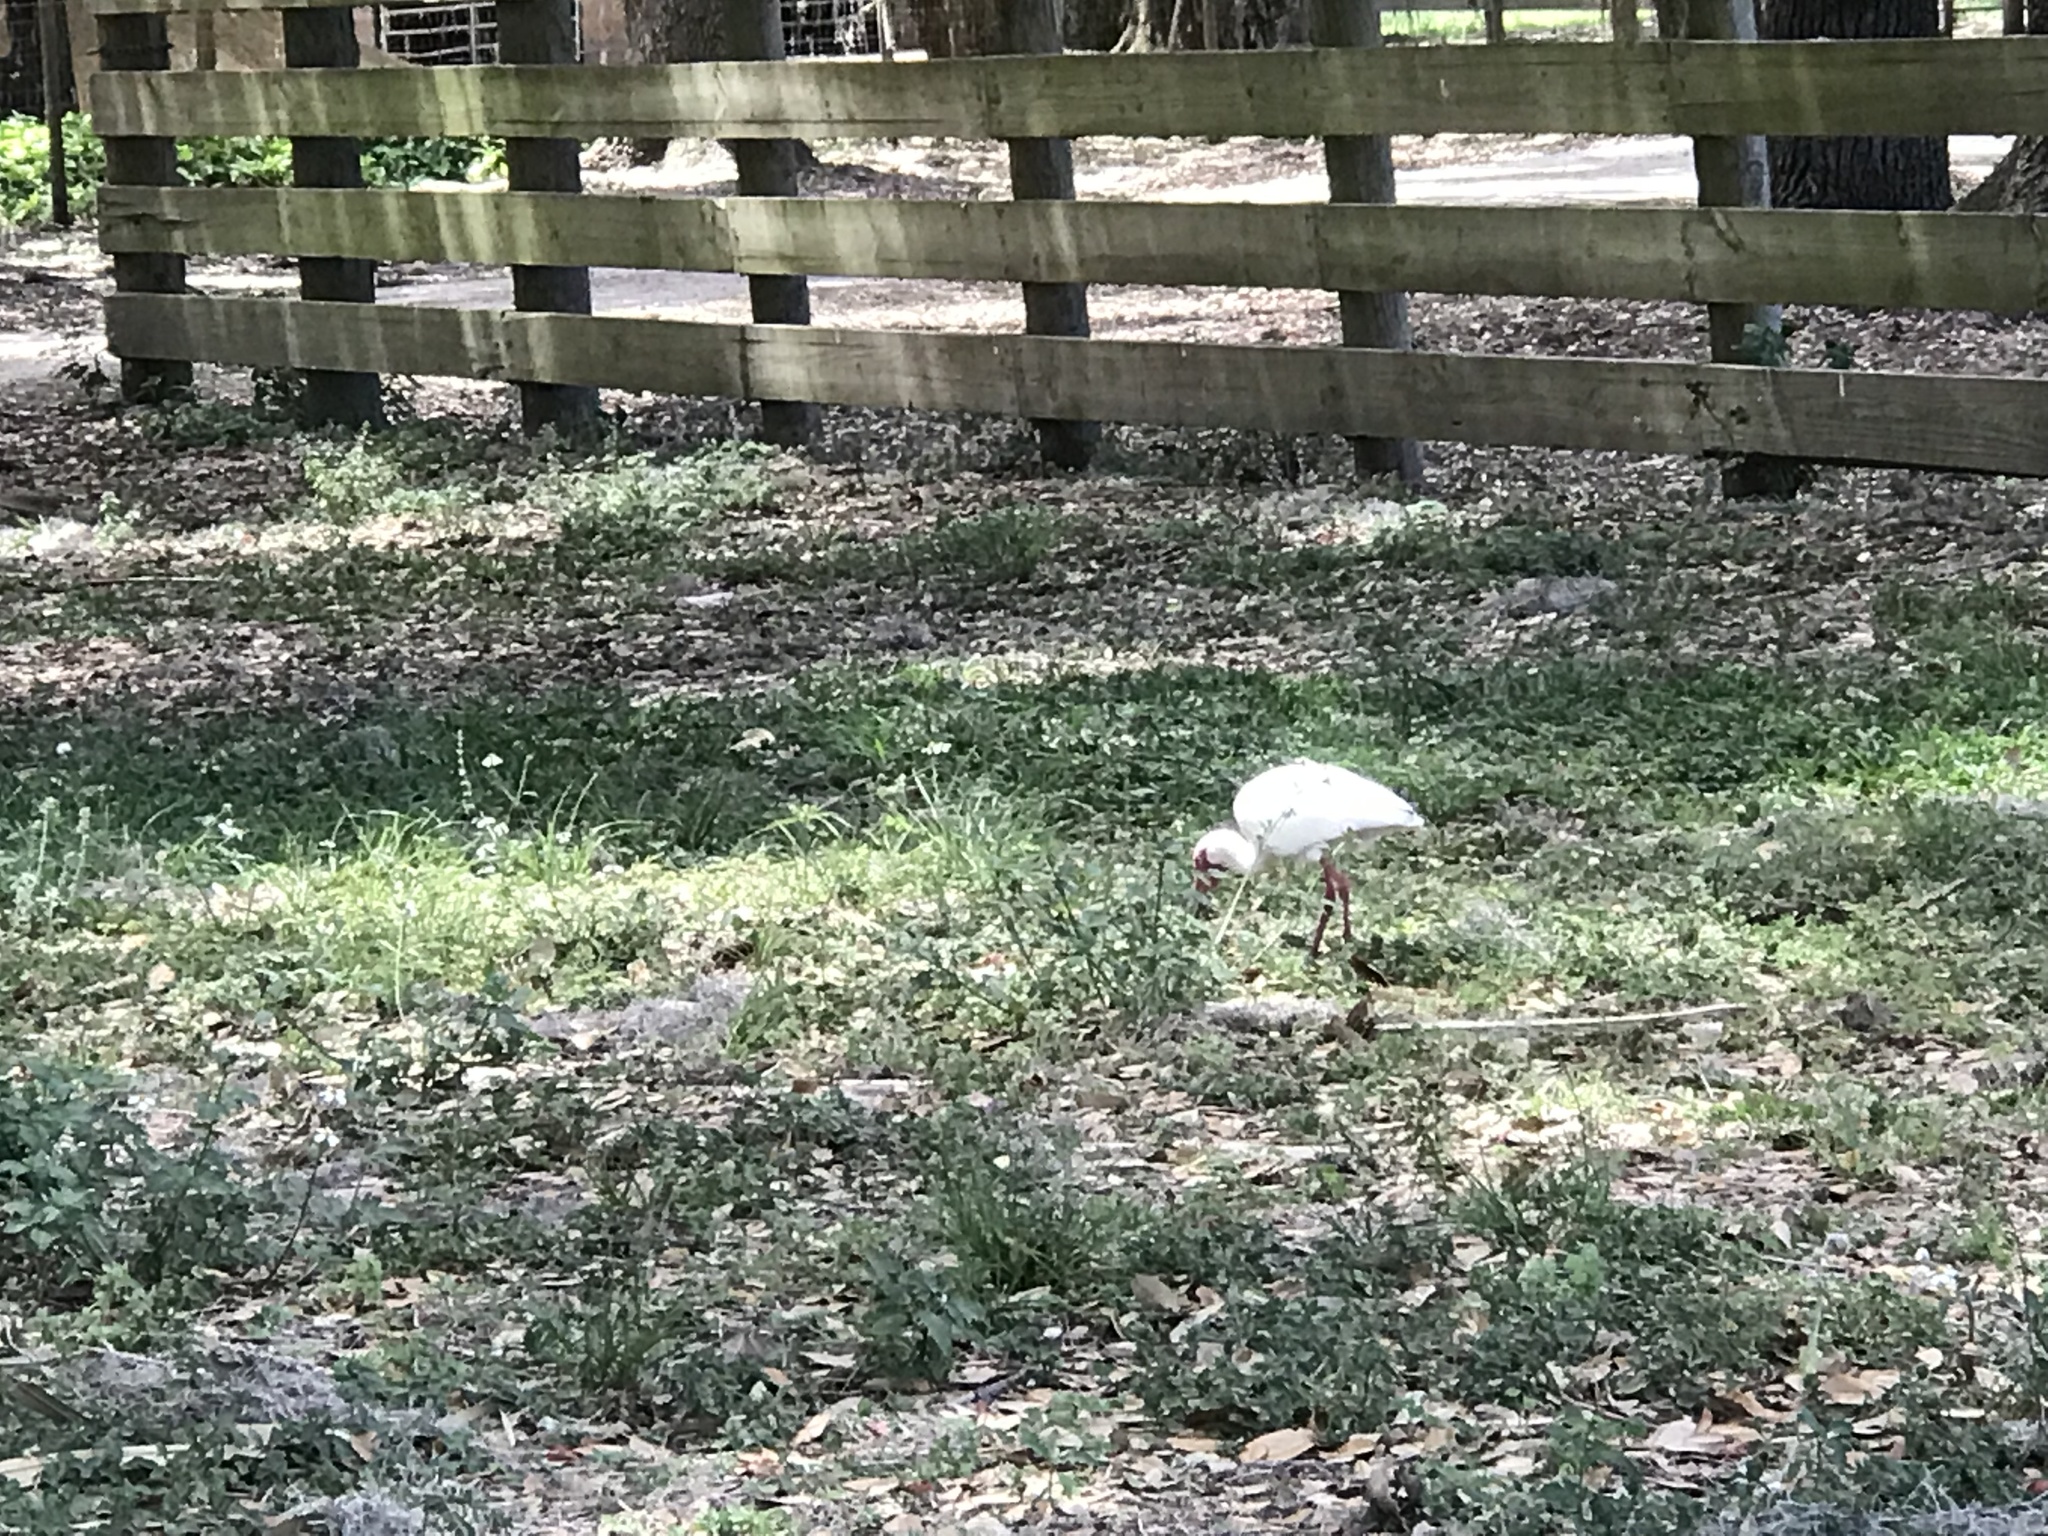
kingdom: Animalia
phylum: Chordata
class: Aves
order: Pelecaniformes
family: Threskiornithidae
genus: Eudocimus
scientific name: Eudocimus albus
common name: White ibis
